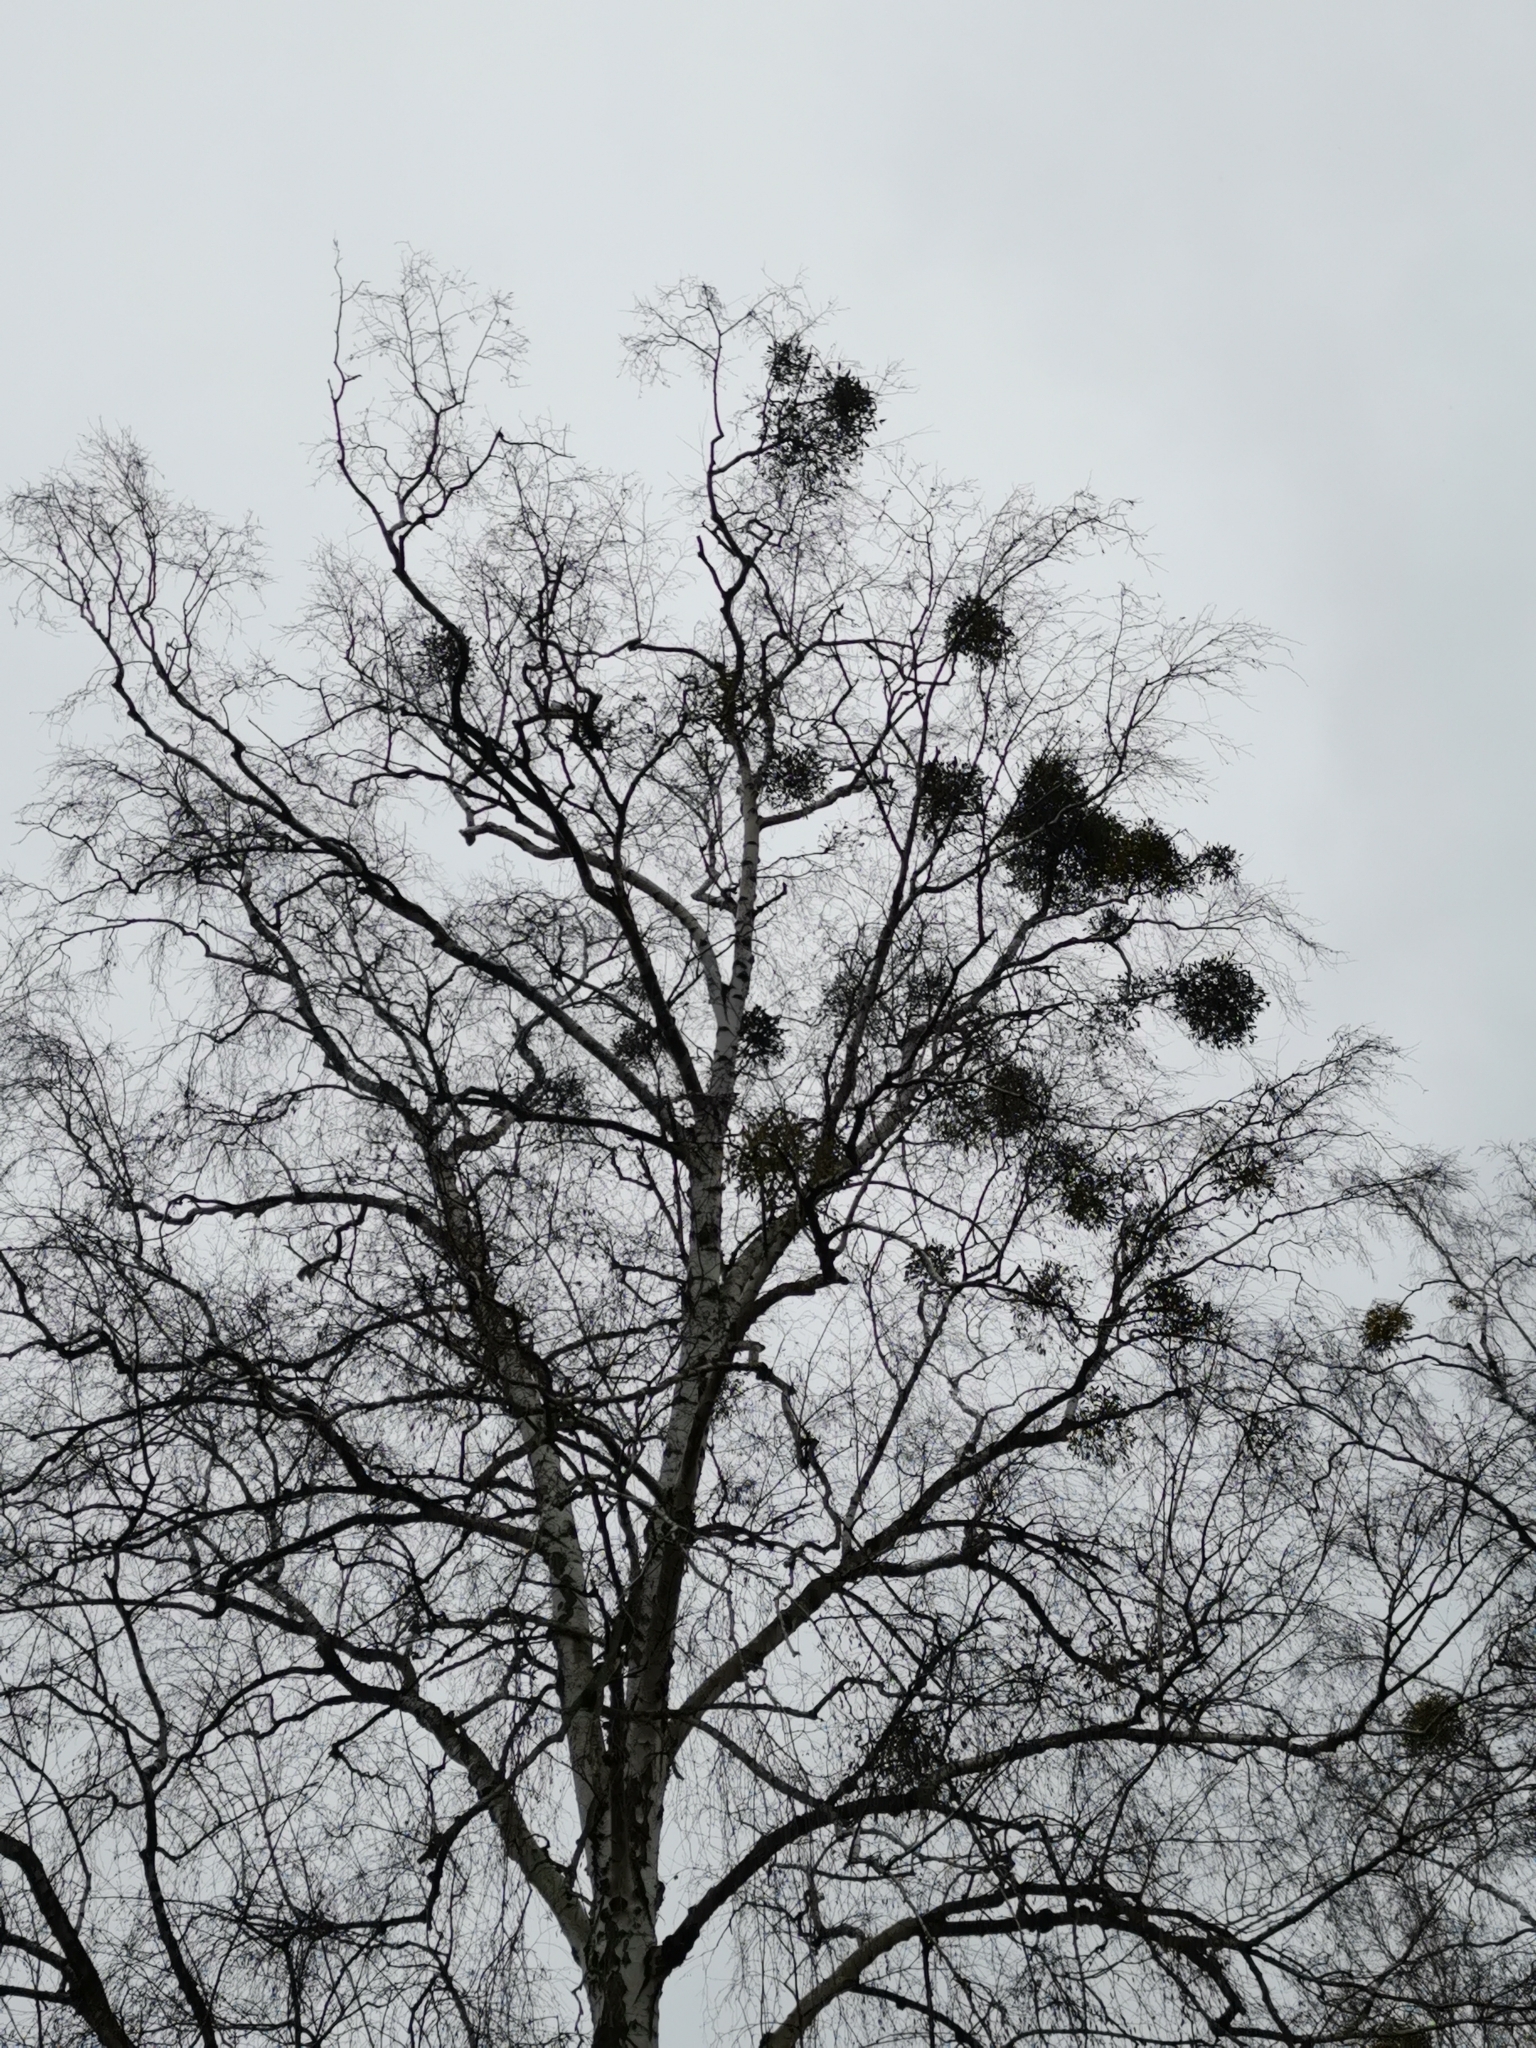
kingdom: Plantae
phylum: Tracheophyta
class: Magnoliopsida
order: Santalales
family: Viscaceae
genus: Viscum
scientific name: Viscum album
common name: Mistletoe
